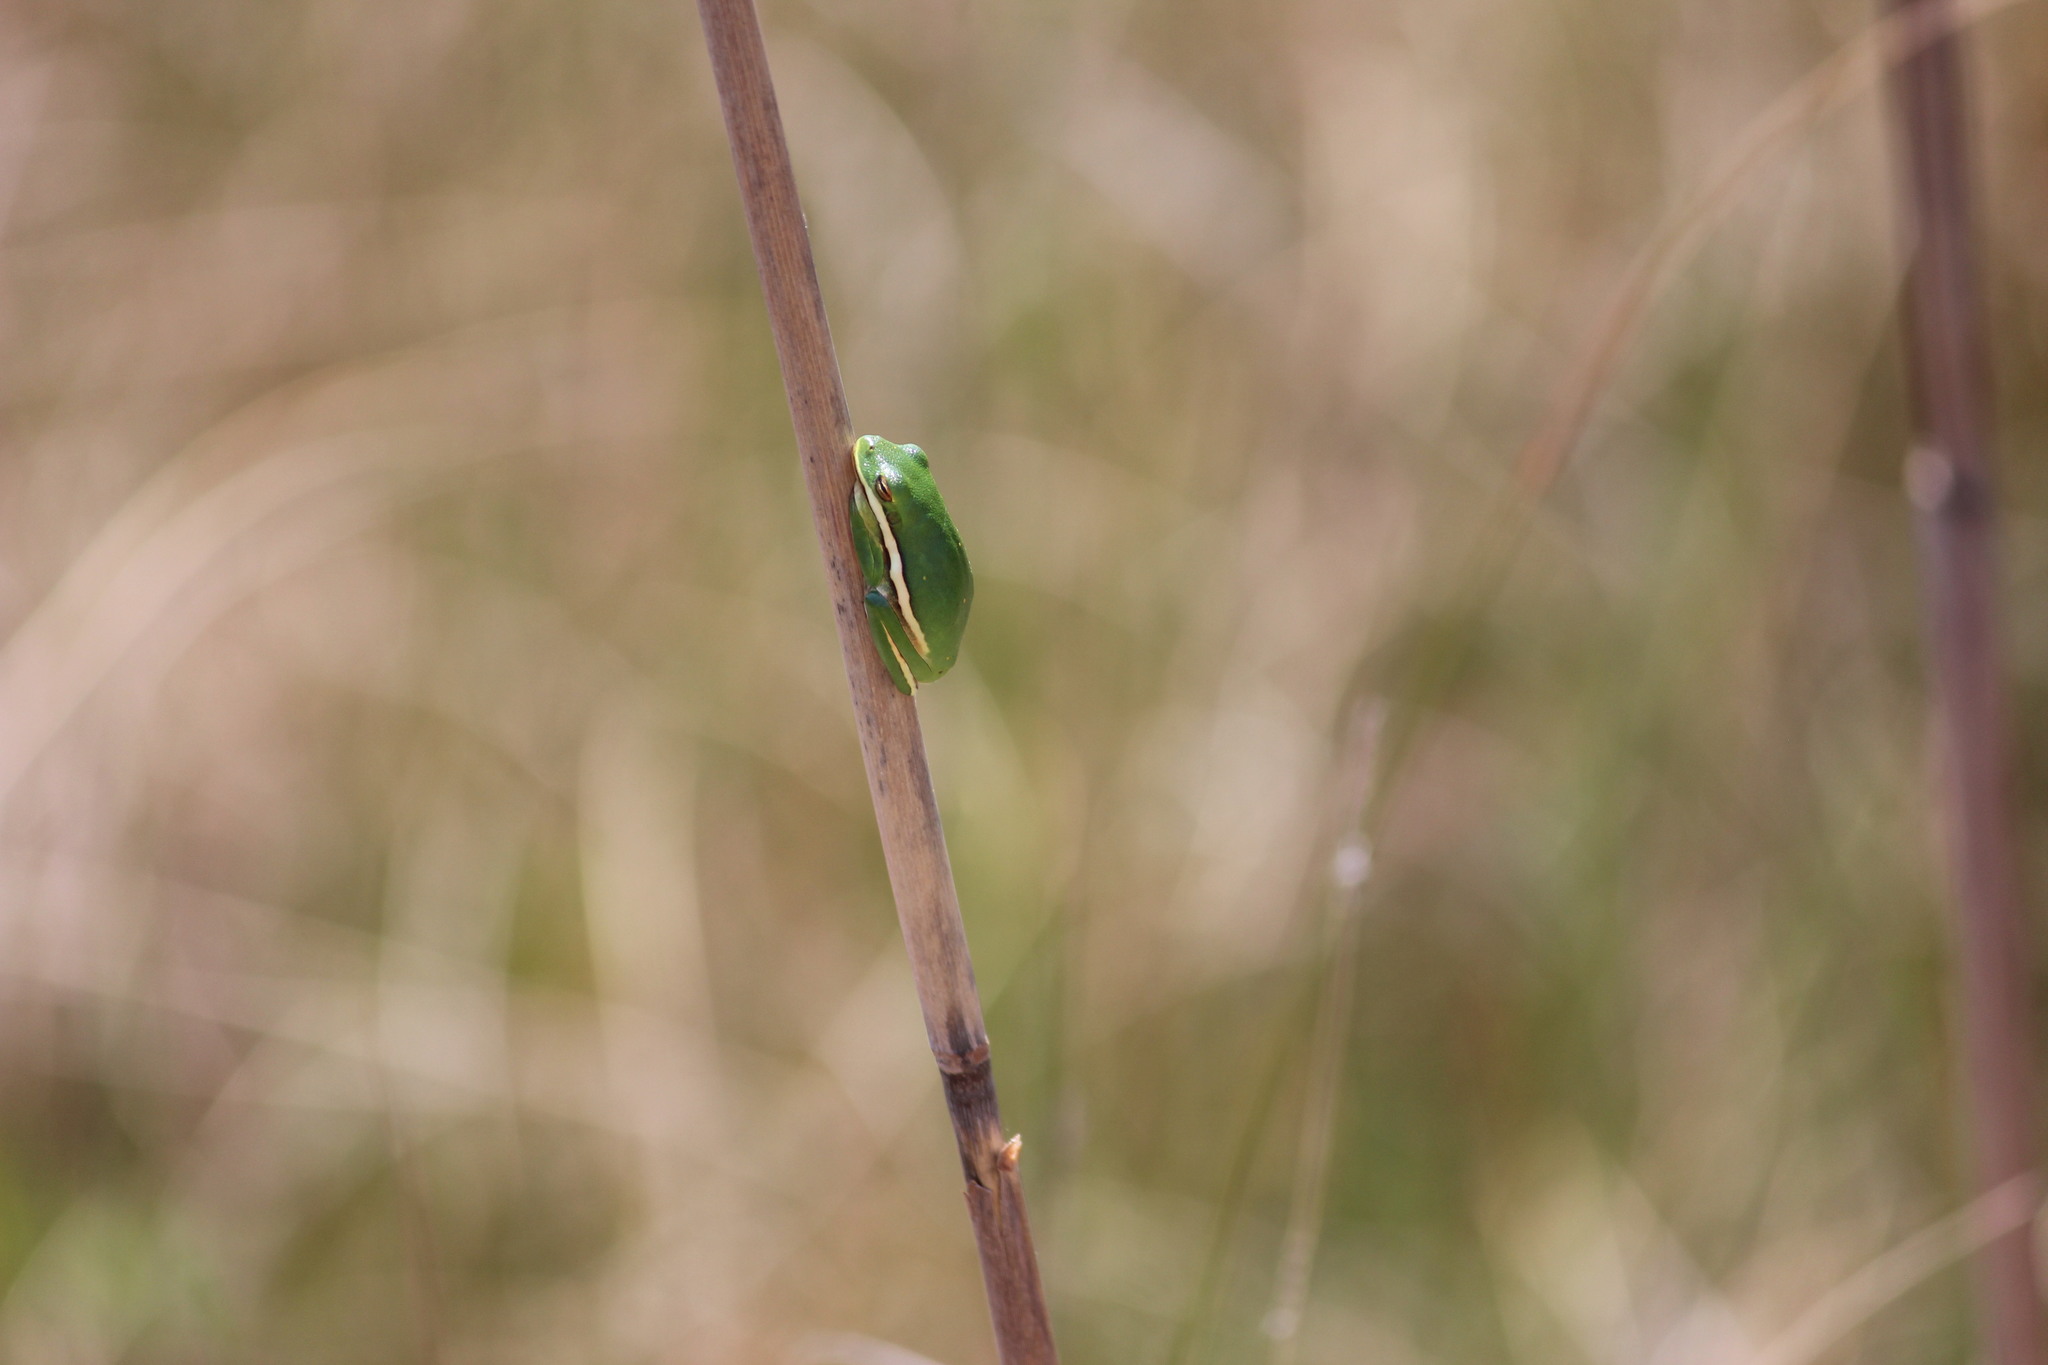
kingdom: Animalia
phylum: Chordata
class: Amphibia
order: Anura
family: Hylidae
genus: Dryophytes
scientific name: Dryophytes cinereus
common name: Green treefrog
